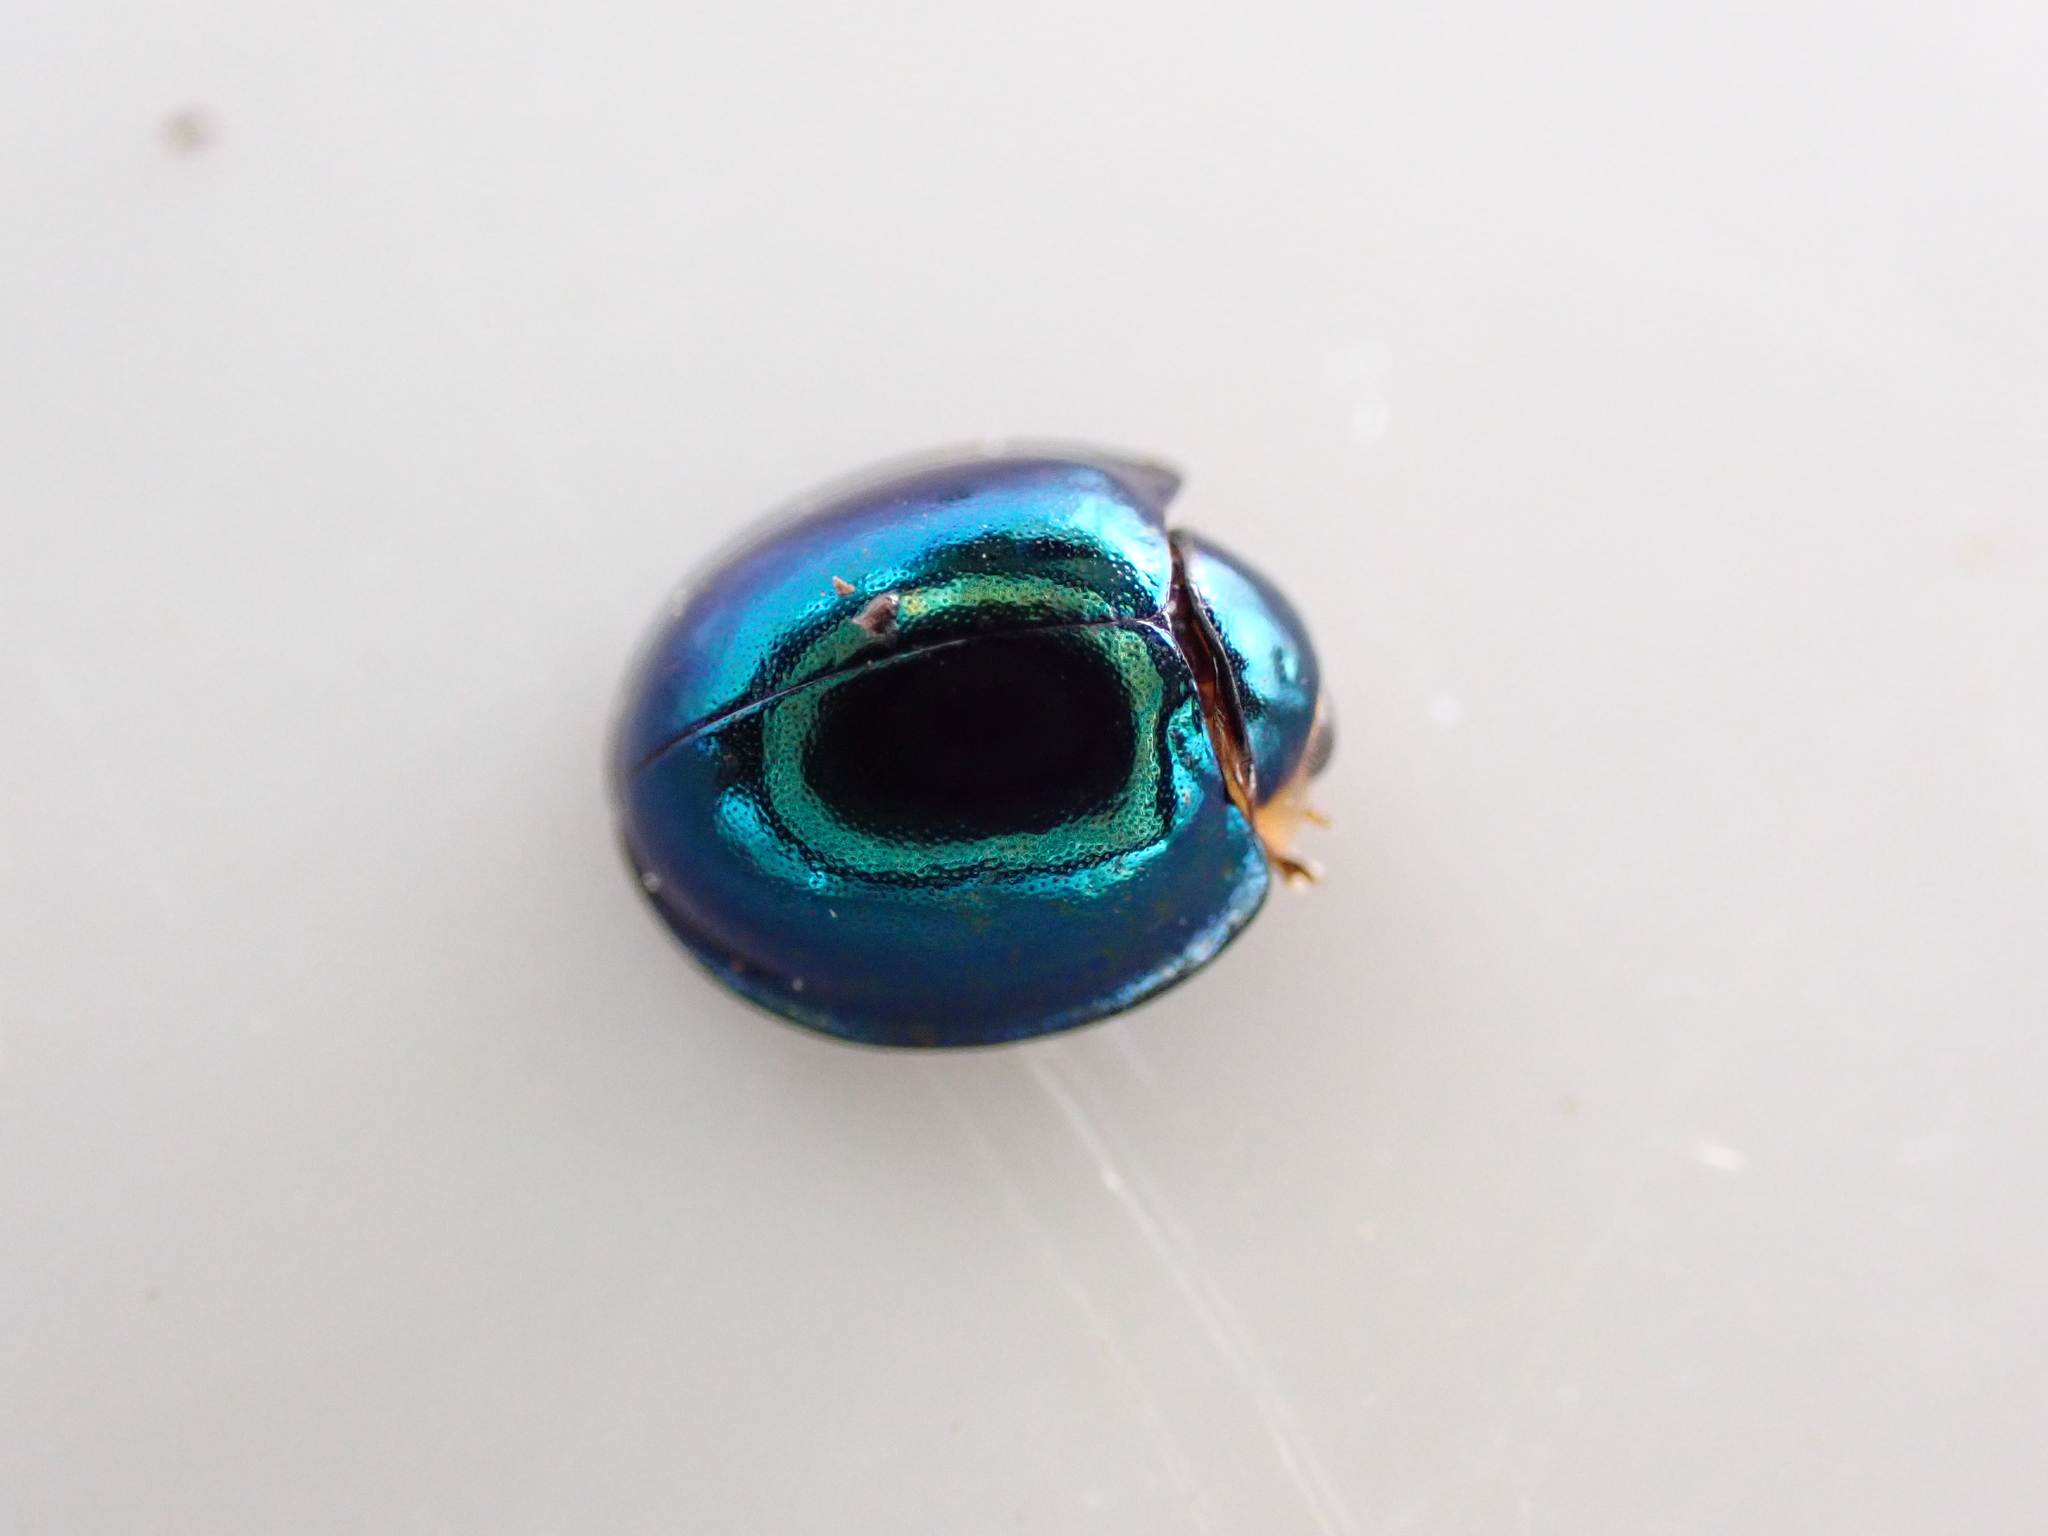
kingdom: Animalia
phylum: Arthropoda
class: Insecta
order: Coleoptera
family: Coccinellidae
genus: Halmus
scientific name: Halmus chalybeus
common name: Steel blue ladybird beetle
